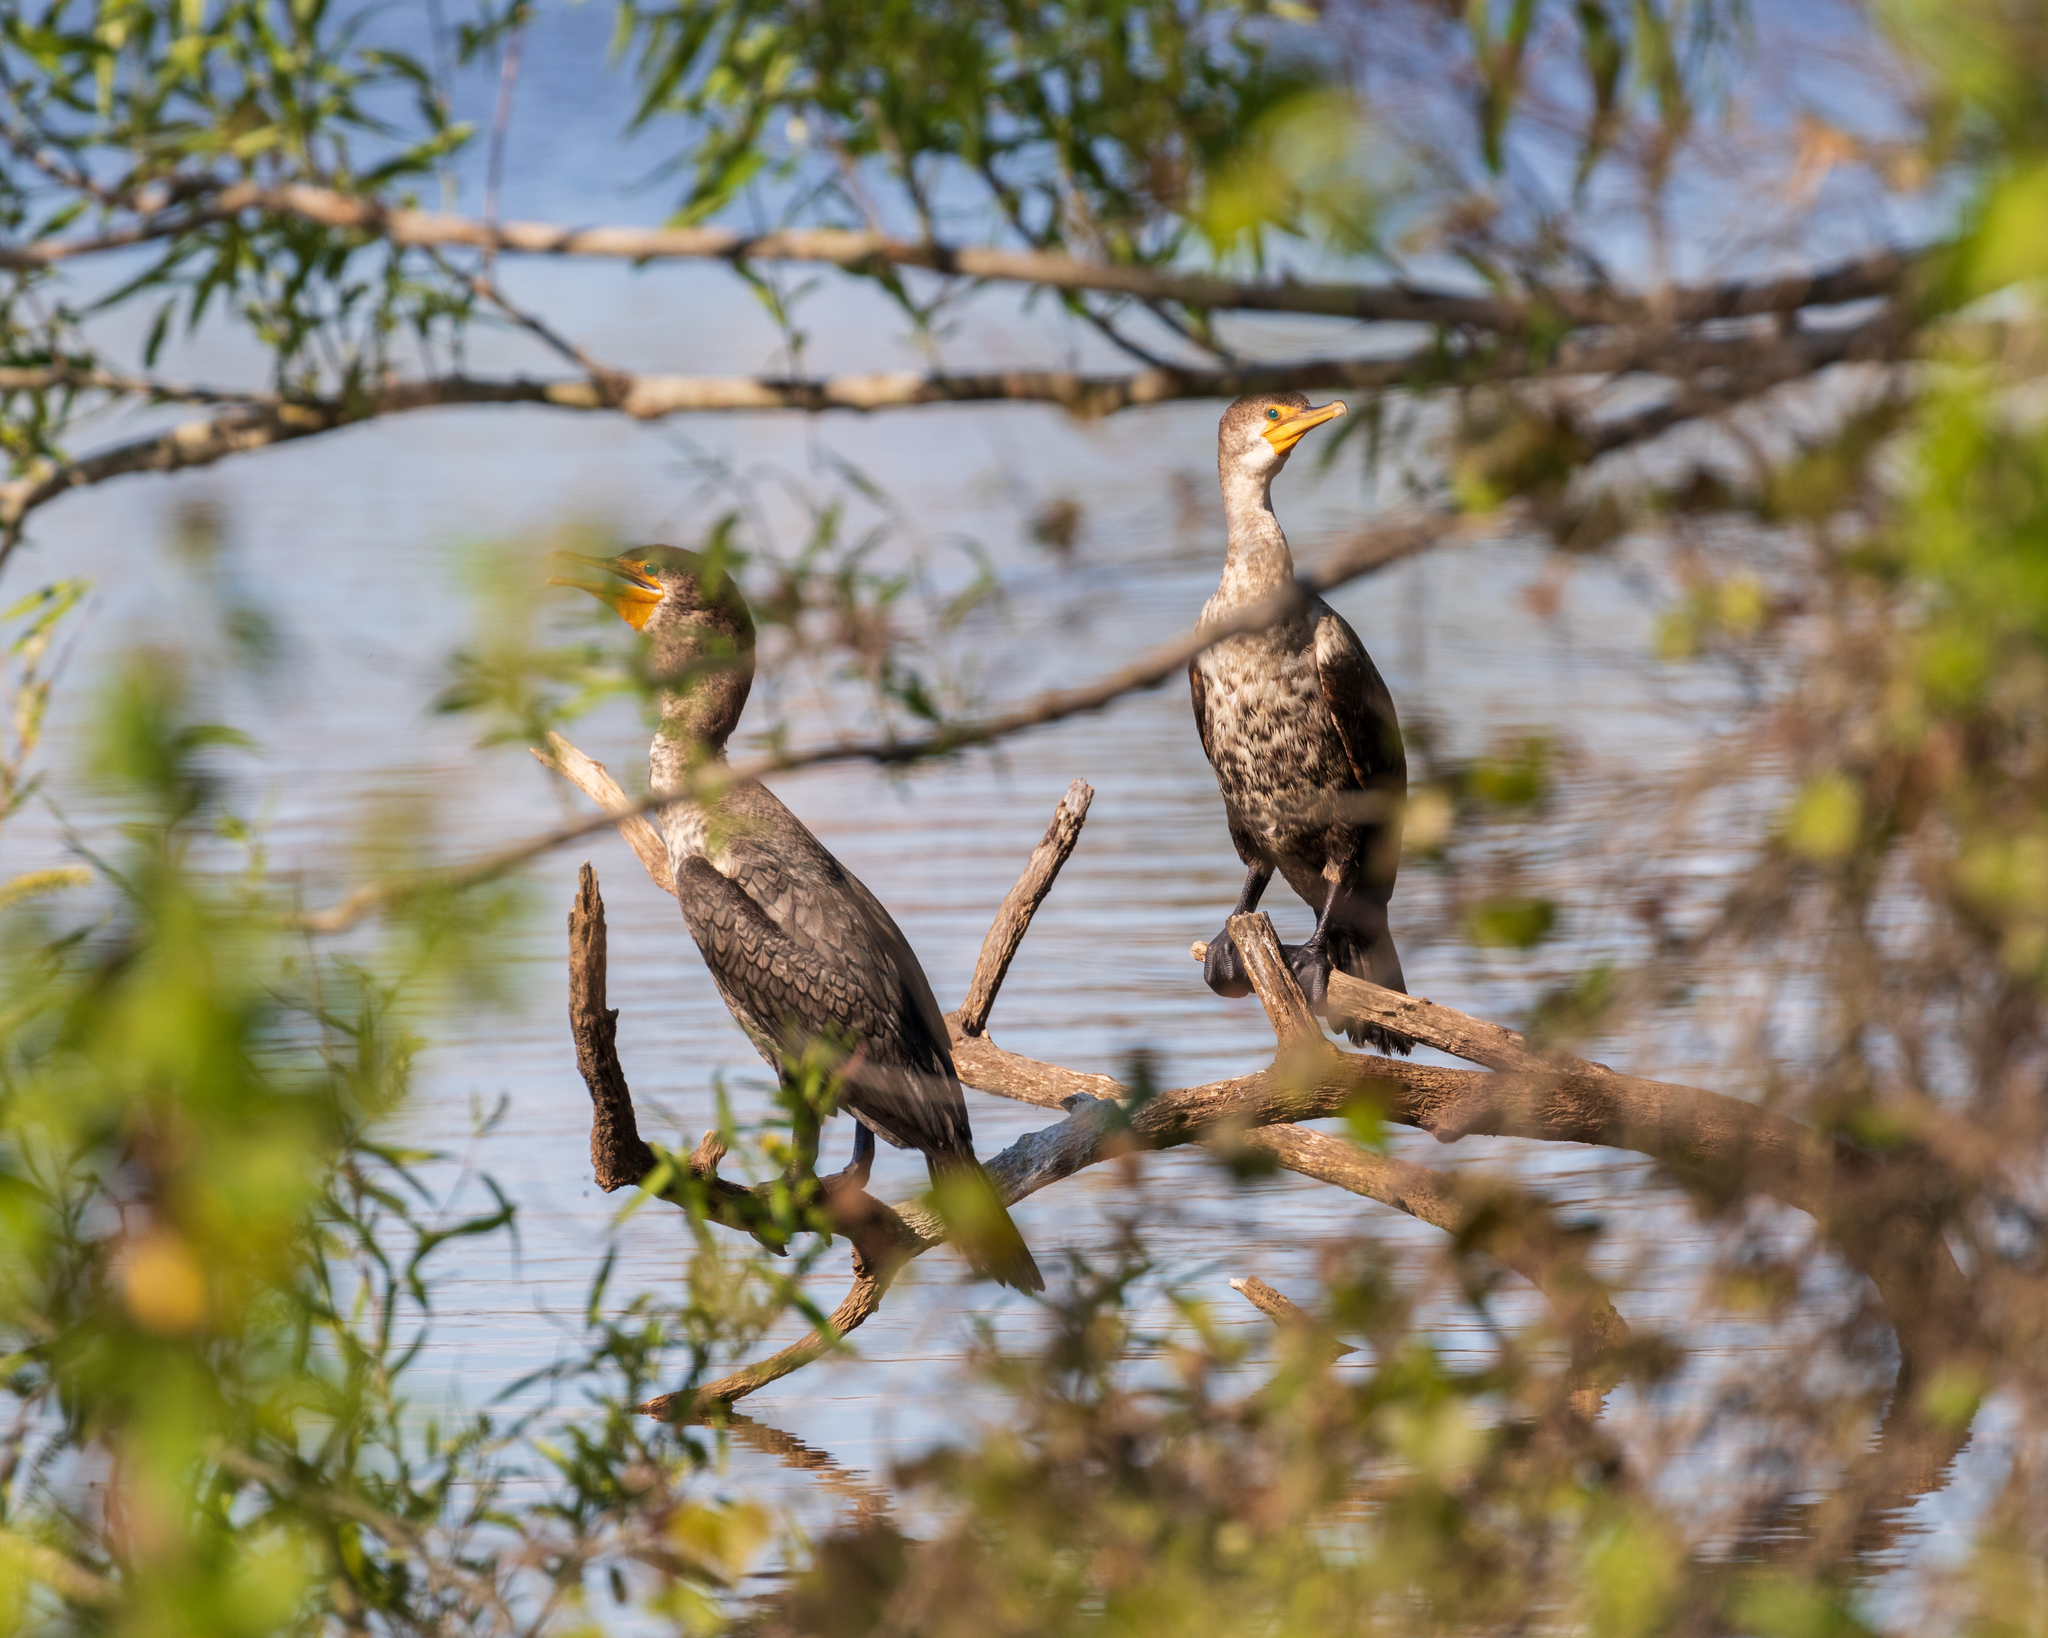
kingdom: Animalia
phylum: Chordata
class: Aves
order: Suliformes
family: Phalacrocoracidae
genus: Phalacrocorax
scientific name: Phalacrocorax auritus
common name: Double-crested cormorant
